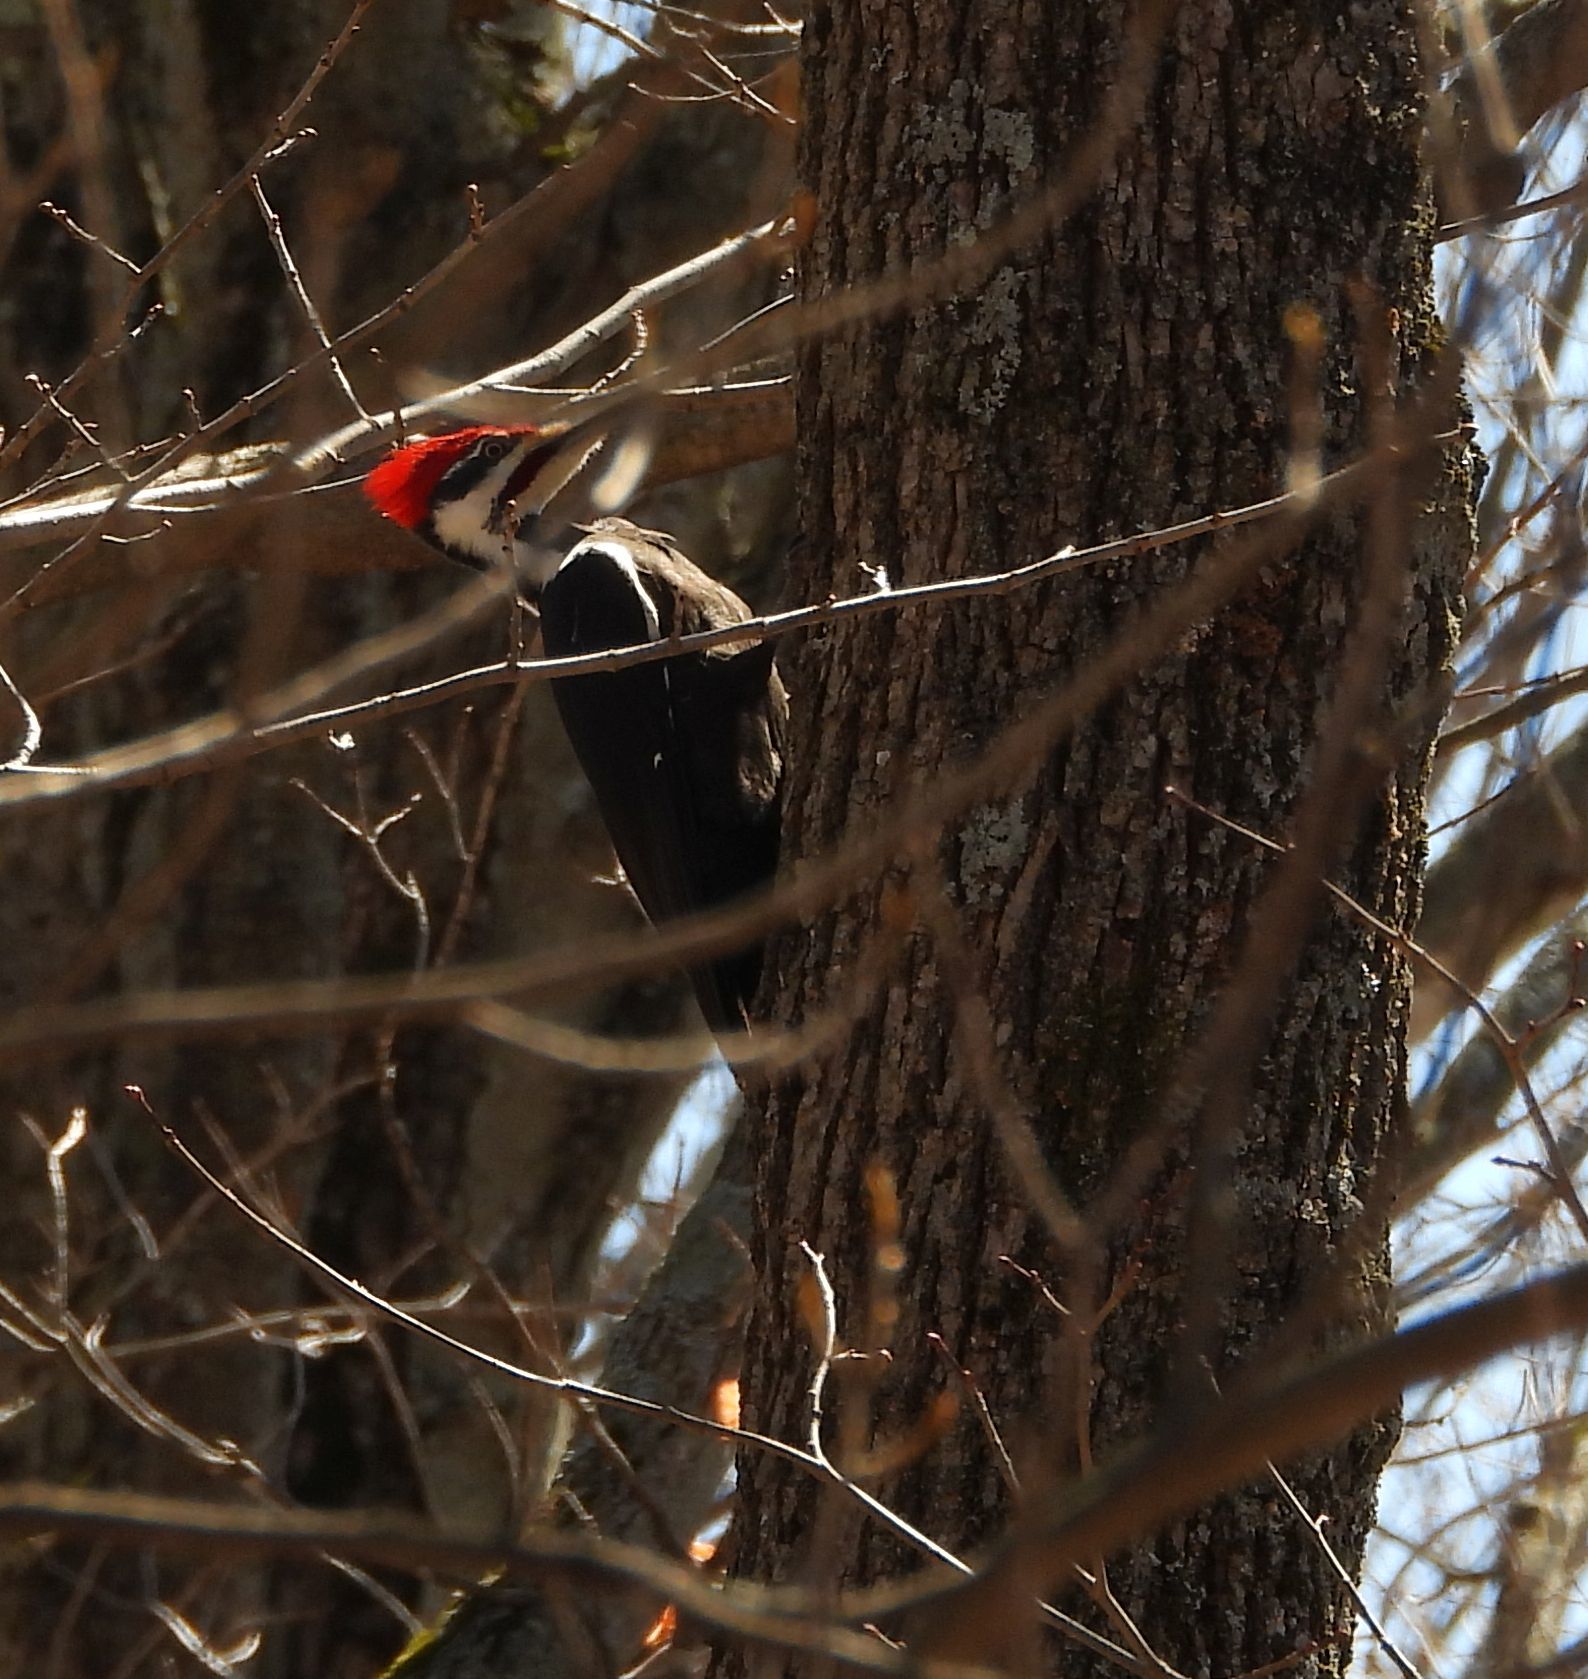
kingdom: Animalia
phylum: Chordata
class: Aves
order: Piciformes
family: Picidae
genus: Dryocopus
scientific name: Dryocopus pileatus
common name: Pileated woodpecker
